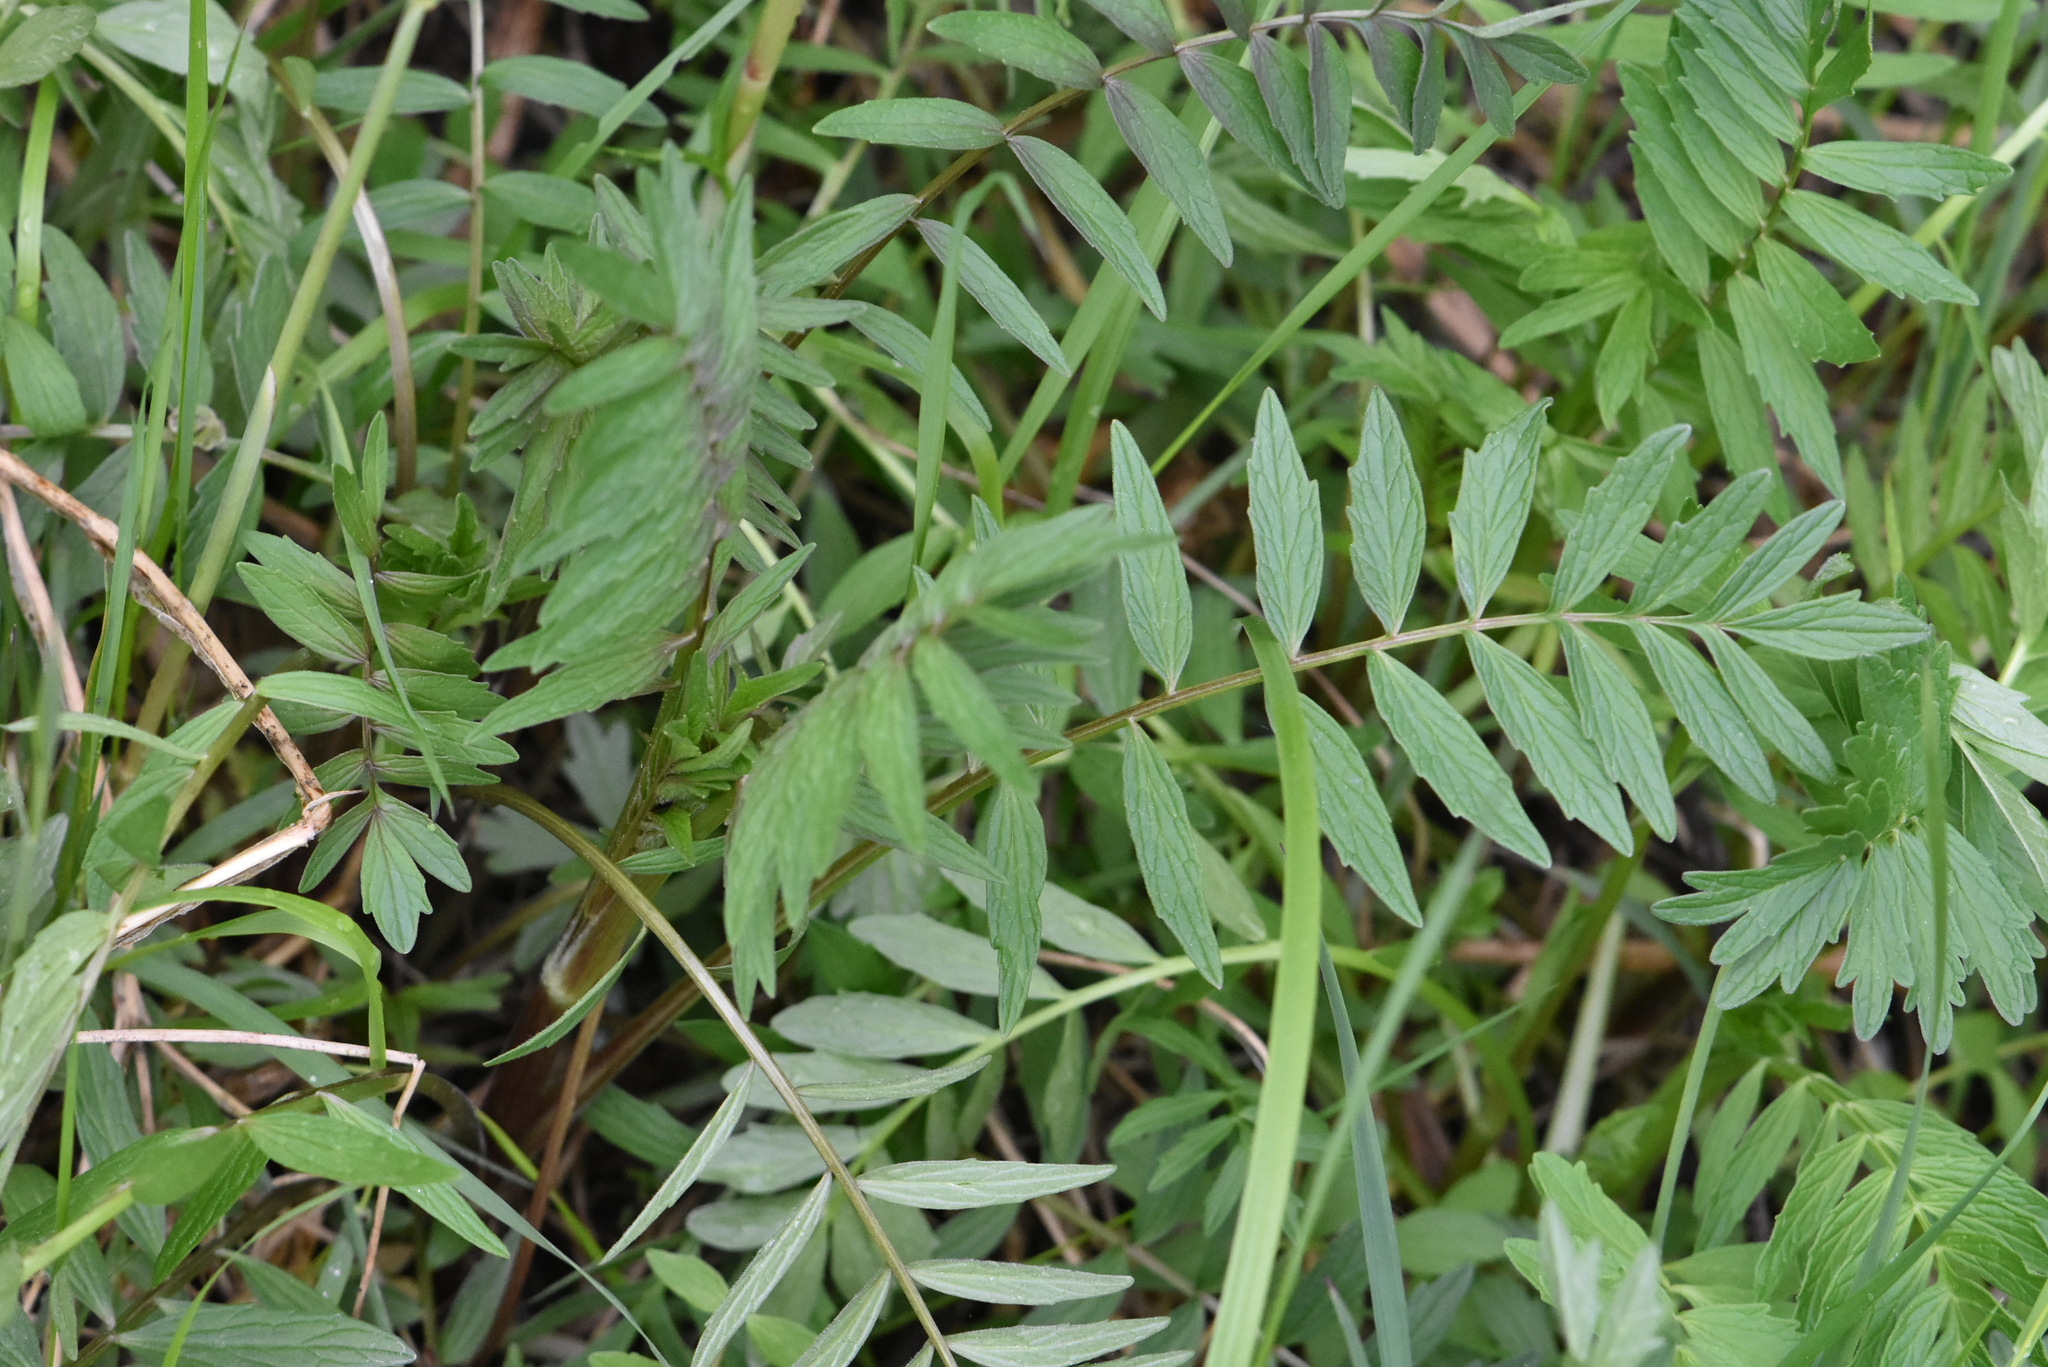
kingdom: Plantae
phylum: Tracheophyta
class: Magnoliopsida
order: Dipsacales
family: Caprifoliaceae
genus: Valeriana
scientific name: Valeriana officinalis
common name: Common valerian
